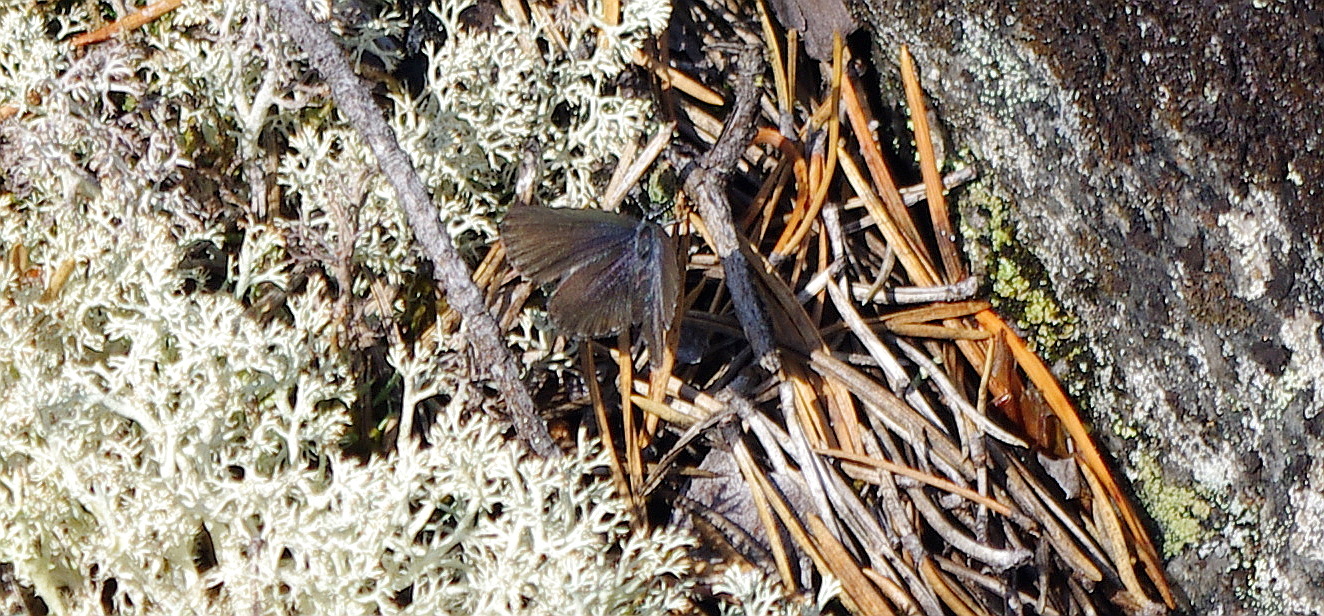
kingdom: Animalia
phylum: Arthropoda
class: Insecta
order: Lepidoptera
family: Lycaenidae
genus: Vacciniina
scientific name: Vacciniina optilete
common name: Cranberry blue
